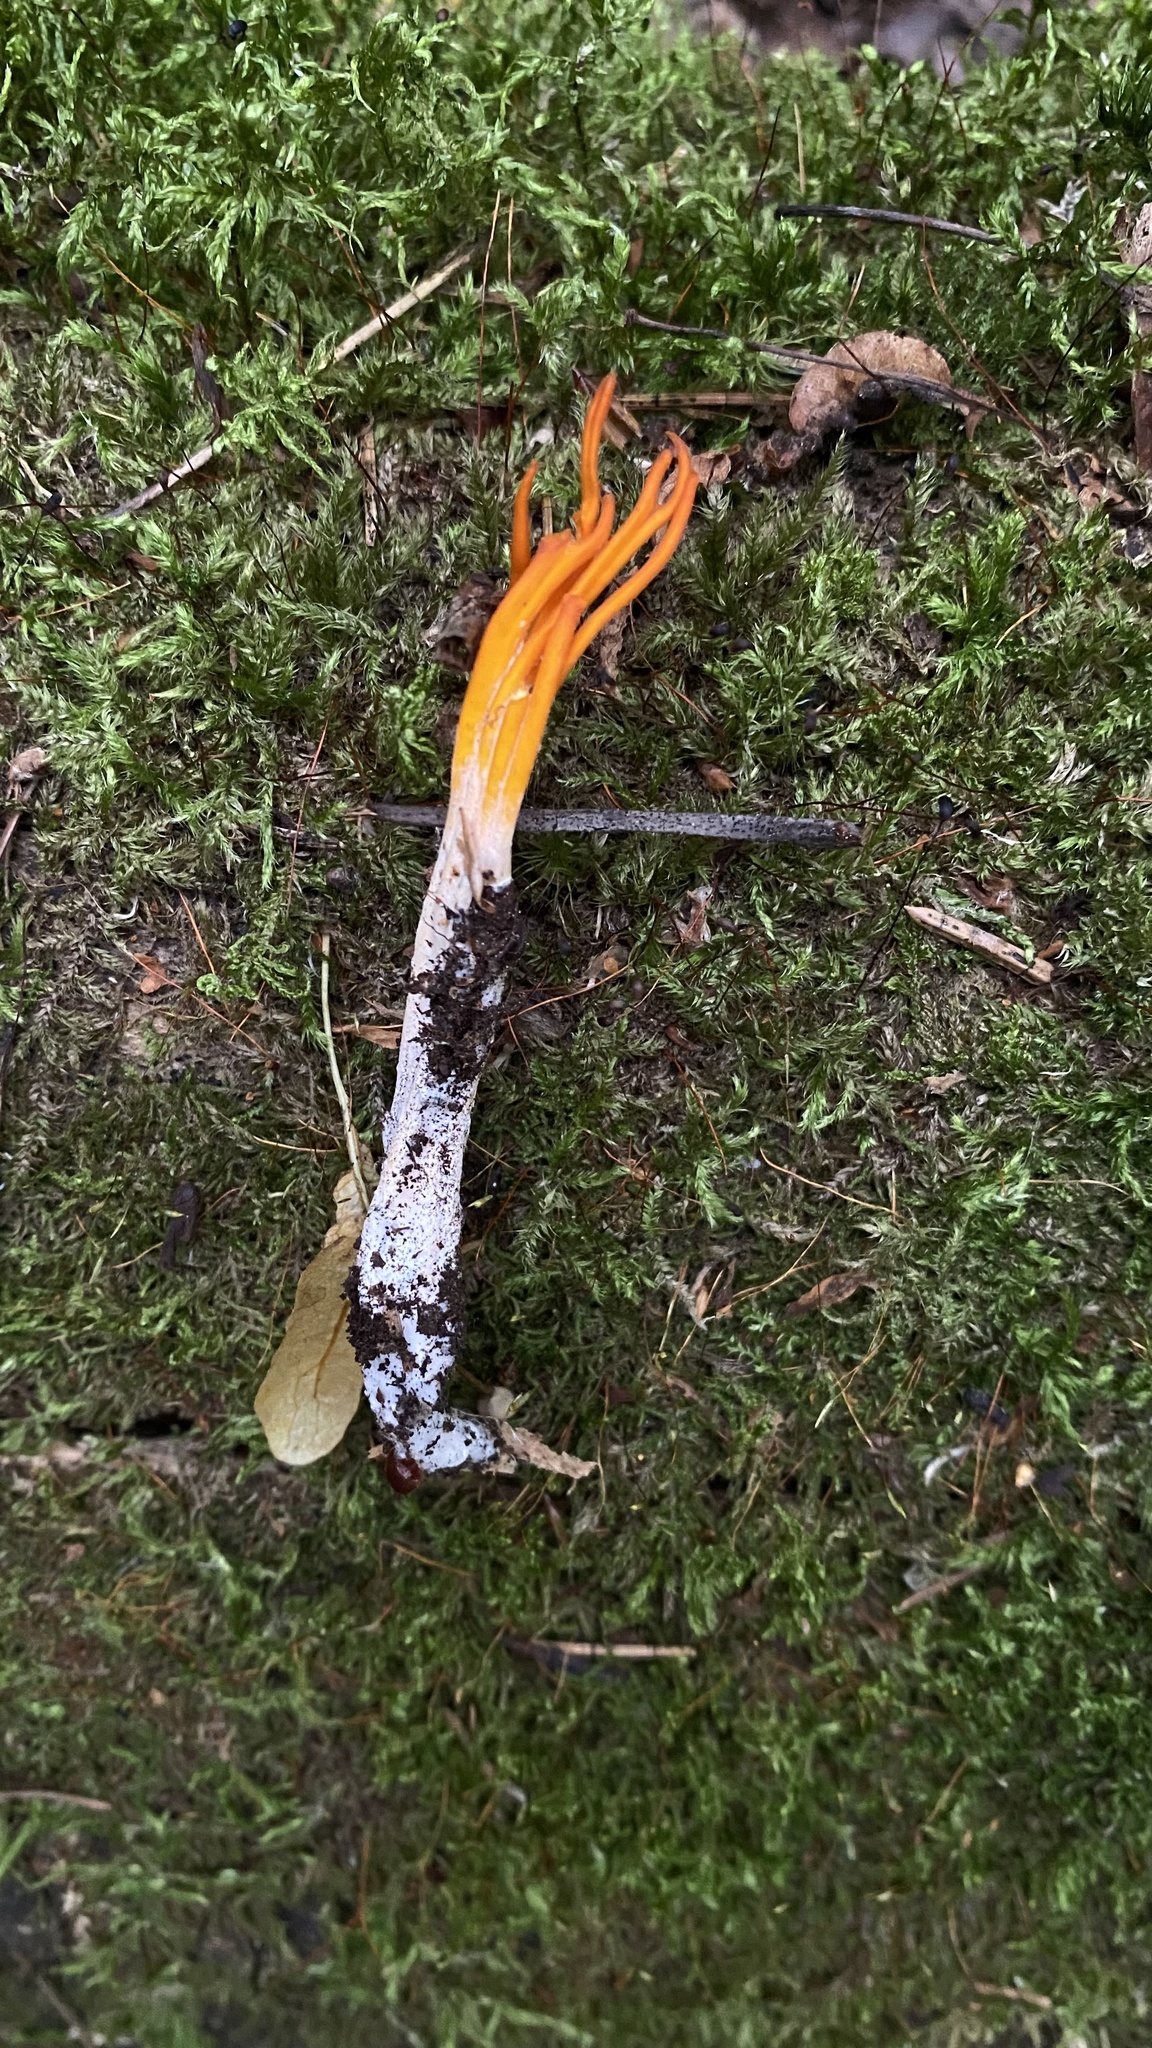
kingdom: Fungi
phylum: Basidiomycota
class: Dacrymycetes
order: Dacrymycetales
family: Dacrymycetaceae
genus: Calocera
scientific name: Calocera viscosa
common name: Yellow stagshorn
